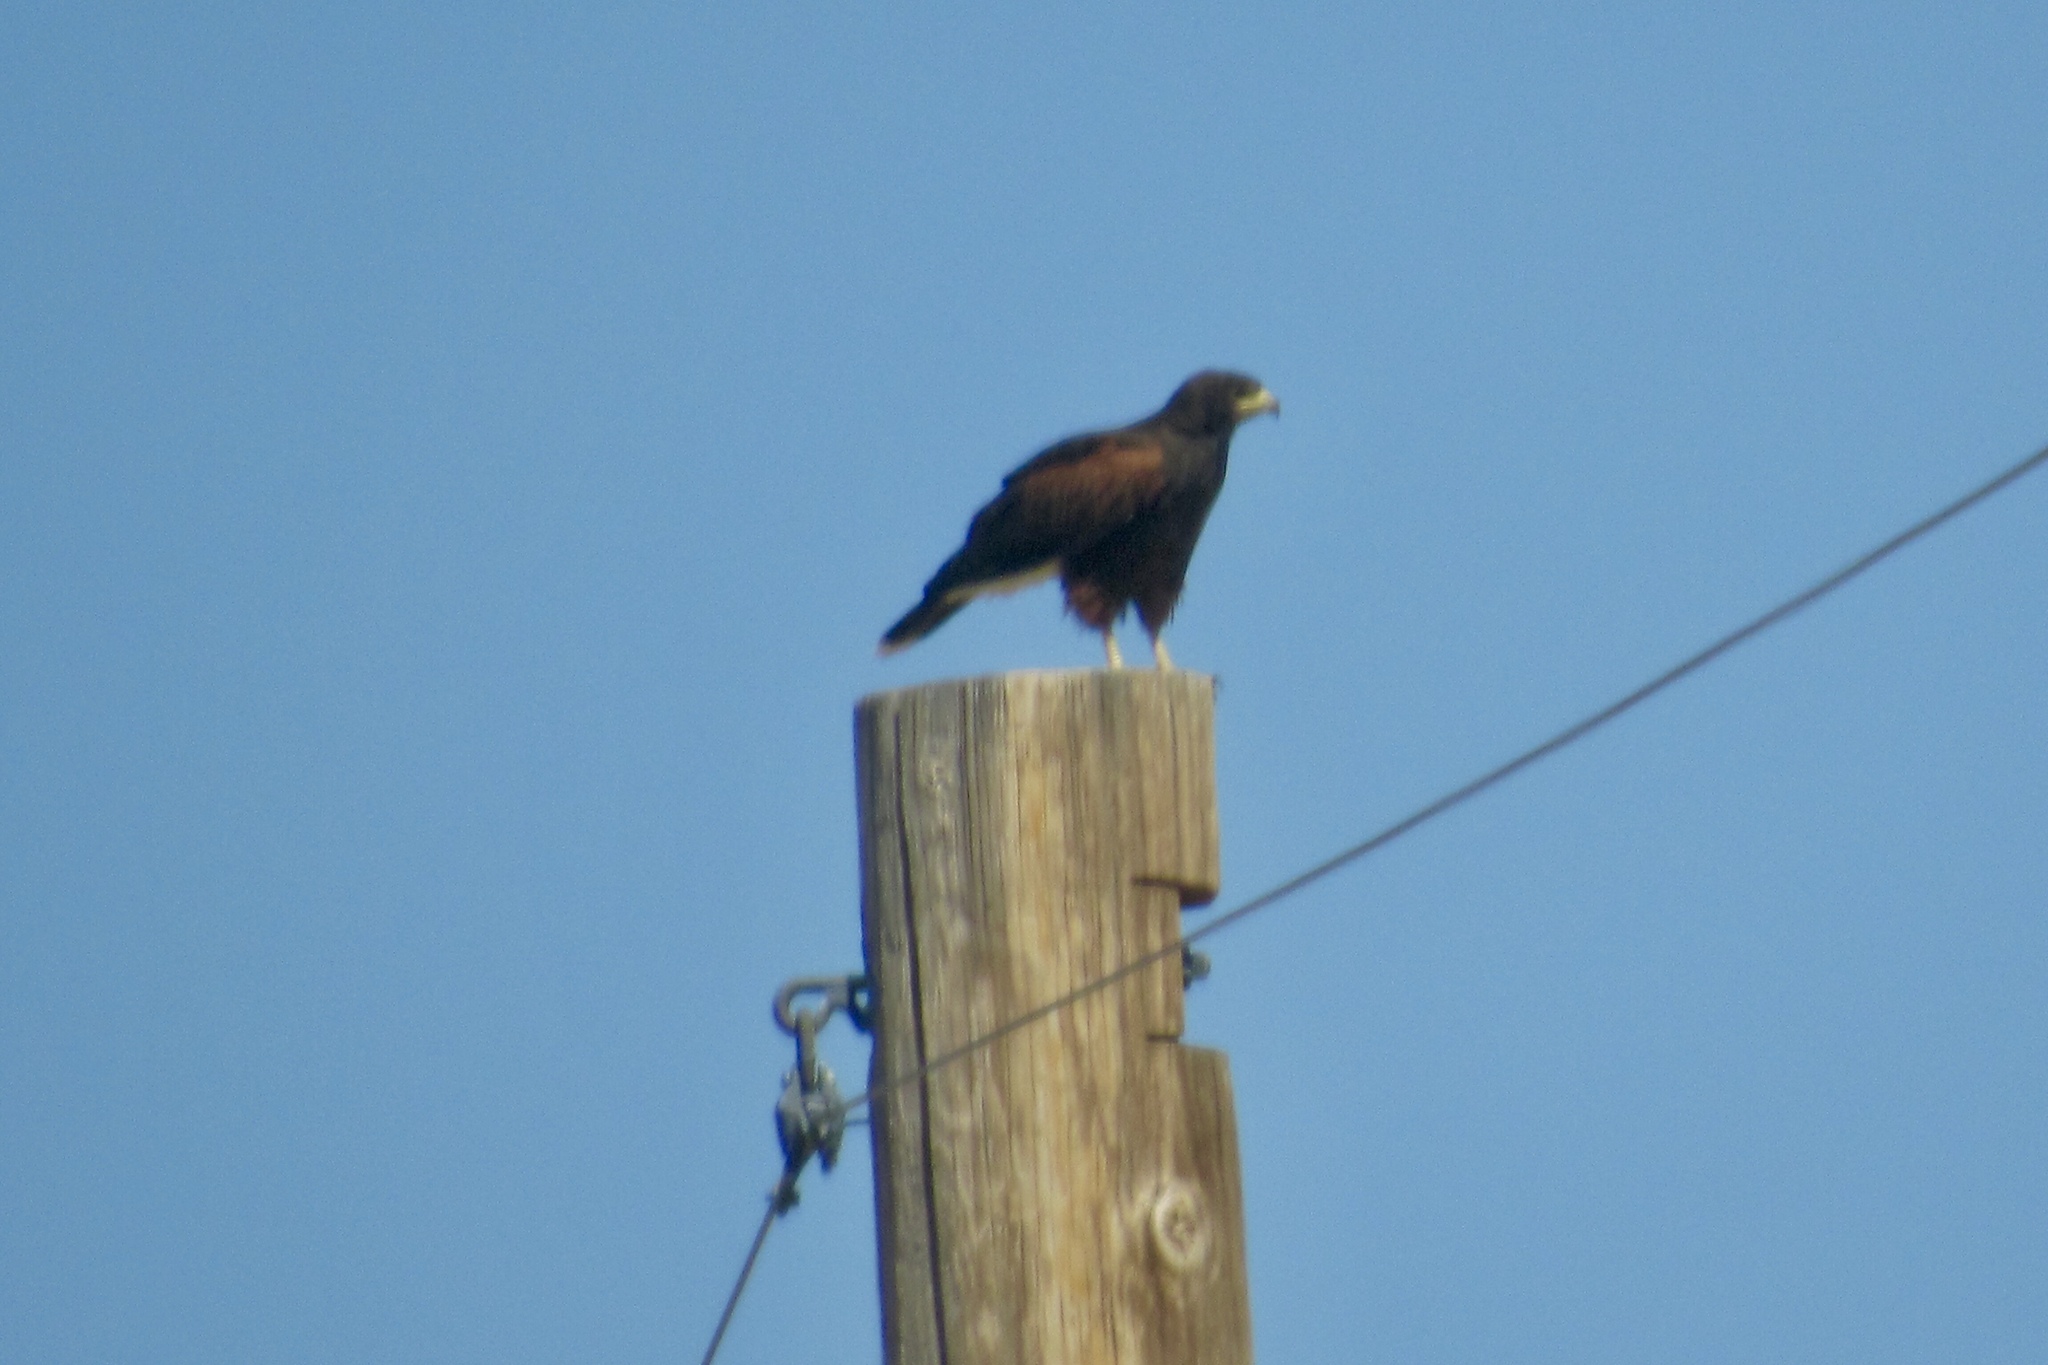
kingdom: Animalia
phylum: Chordata
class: Aves
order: Accipitriformes
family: Accipitridae
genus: Parabuteo
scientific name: Parabuteo unicinctus
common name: Harris's hawk
